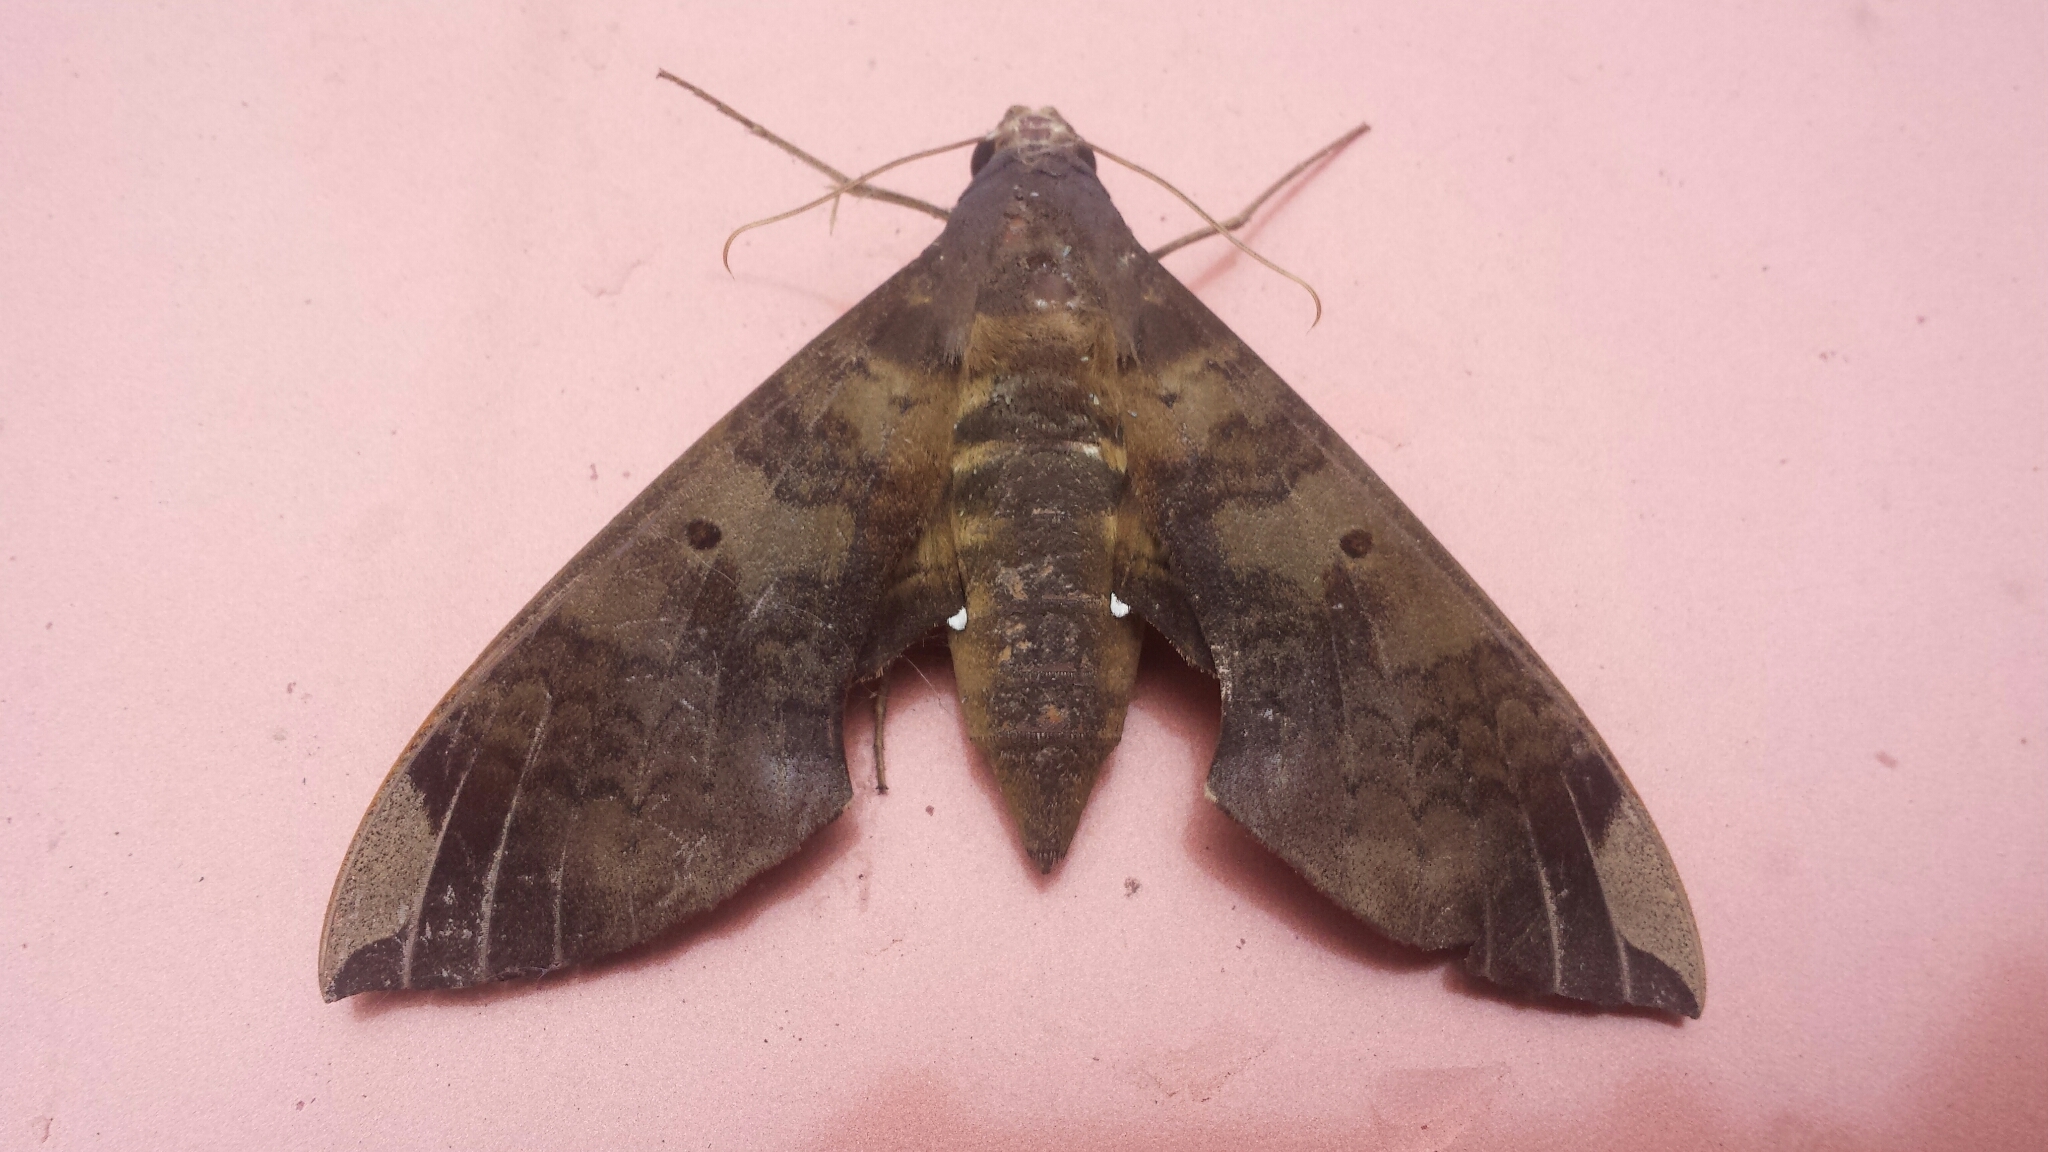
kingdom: Animalia
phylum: Arthropoda
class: Insecta
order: Lepidoptera
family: Sphingidae
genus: Pachylia
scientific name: Pachylia ficus
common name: Fig sphinx
